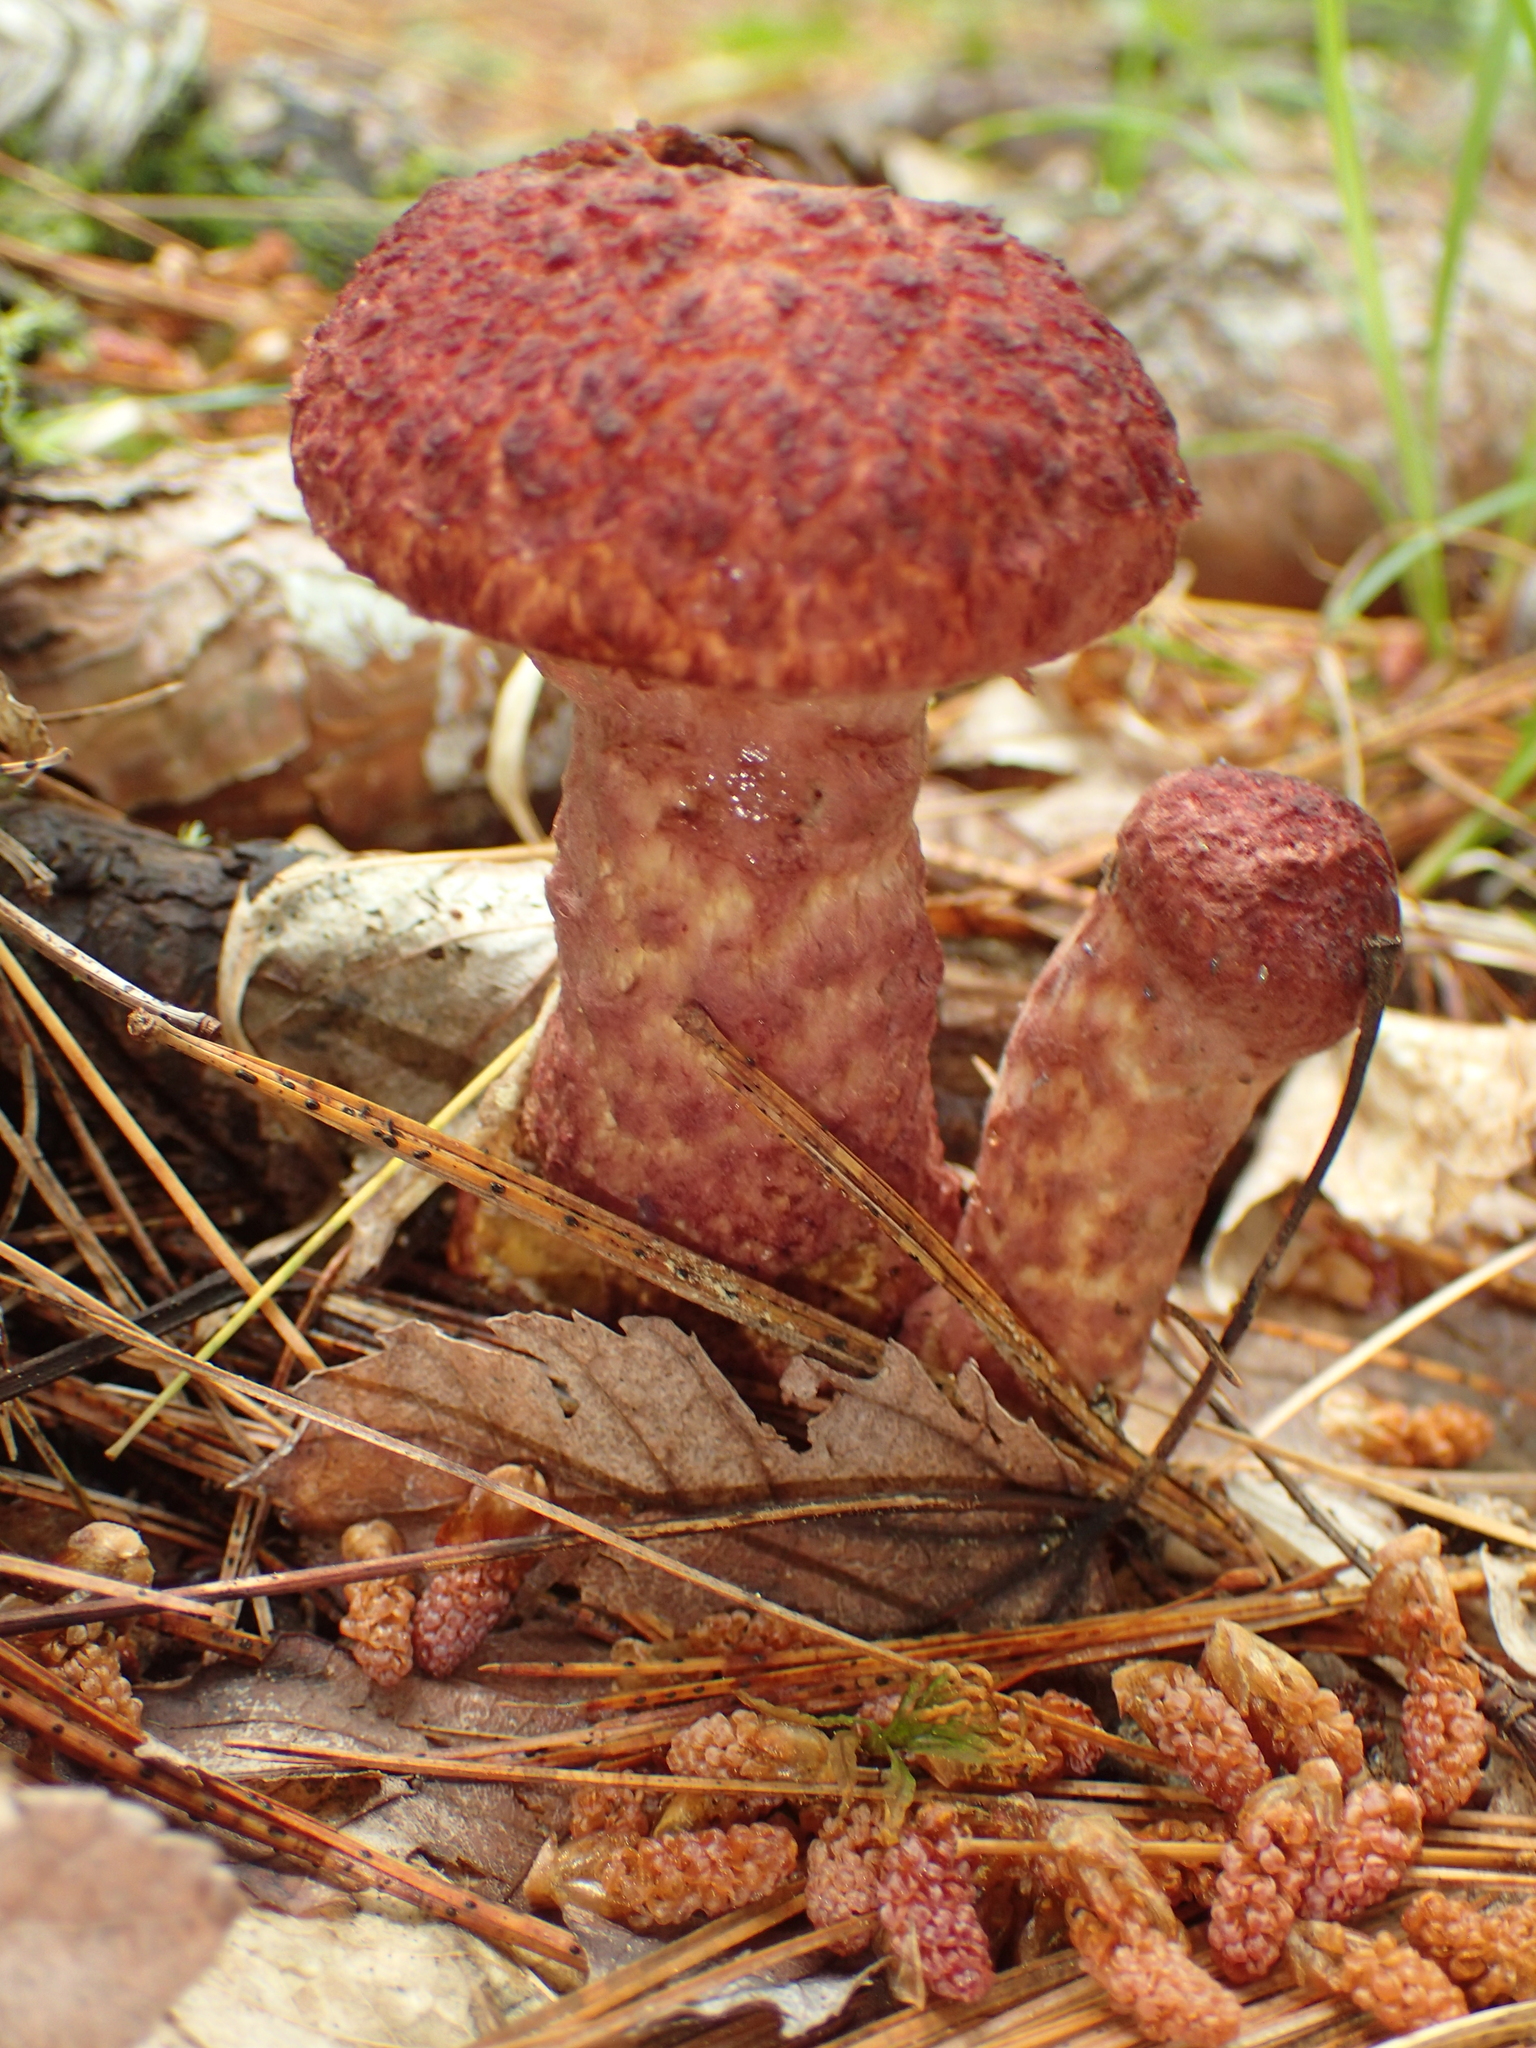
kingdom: Fungi
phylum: Basidiomycota
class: Agaricomycetes
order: Boletales
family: Suillaceae
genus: Suillus
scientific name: Suillus spraguei
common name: Painted suillus
